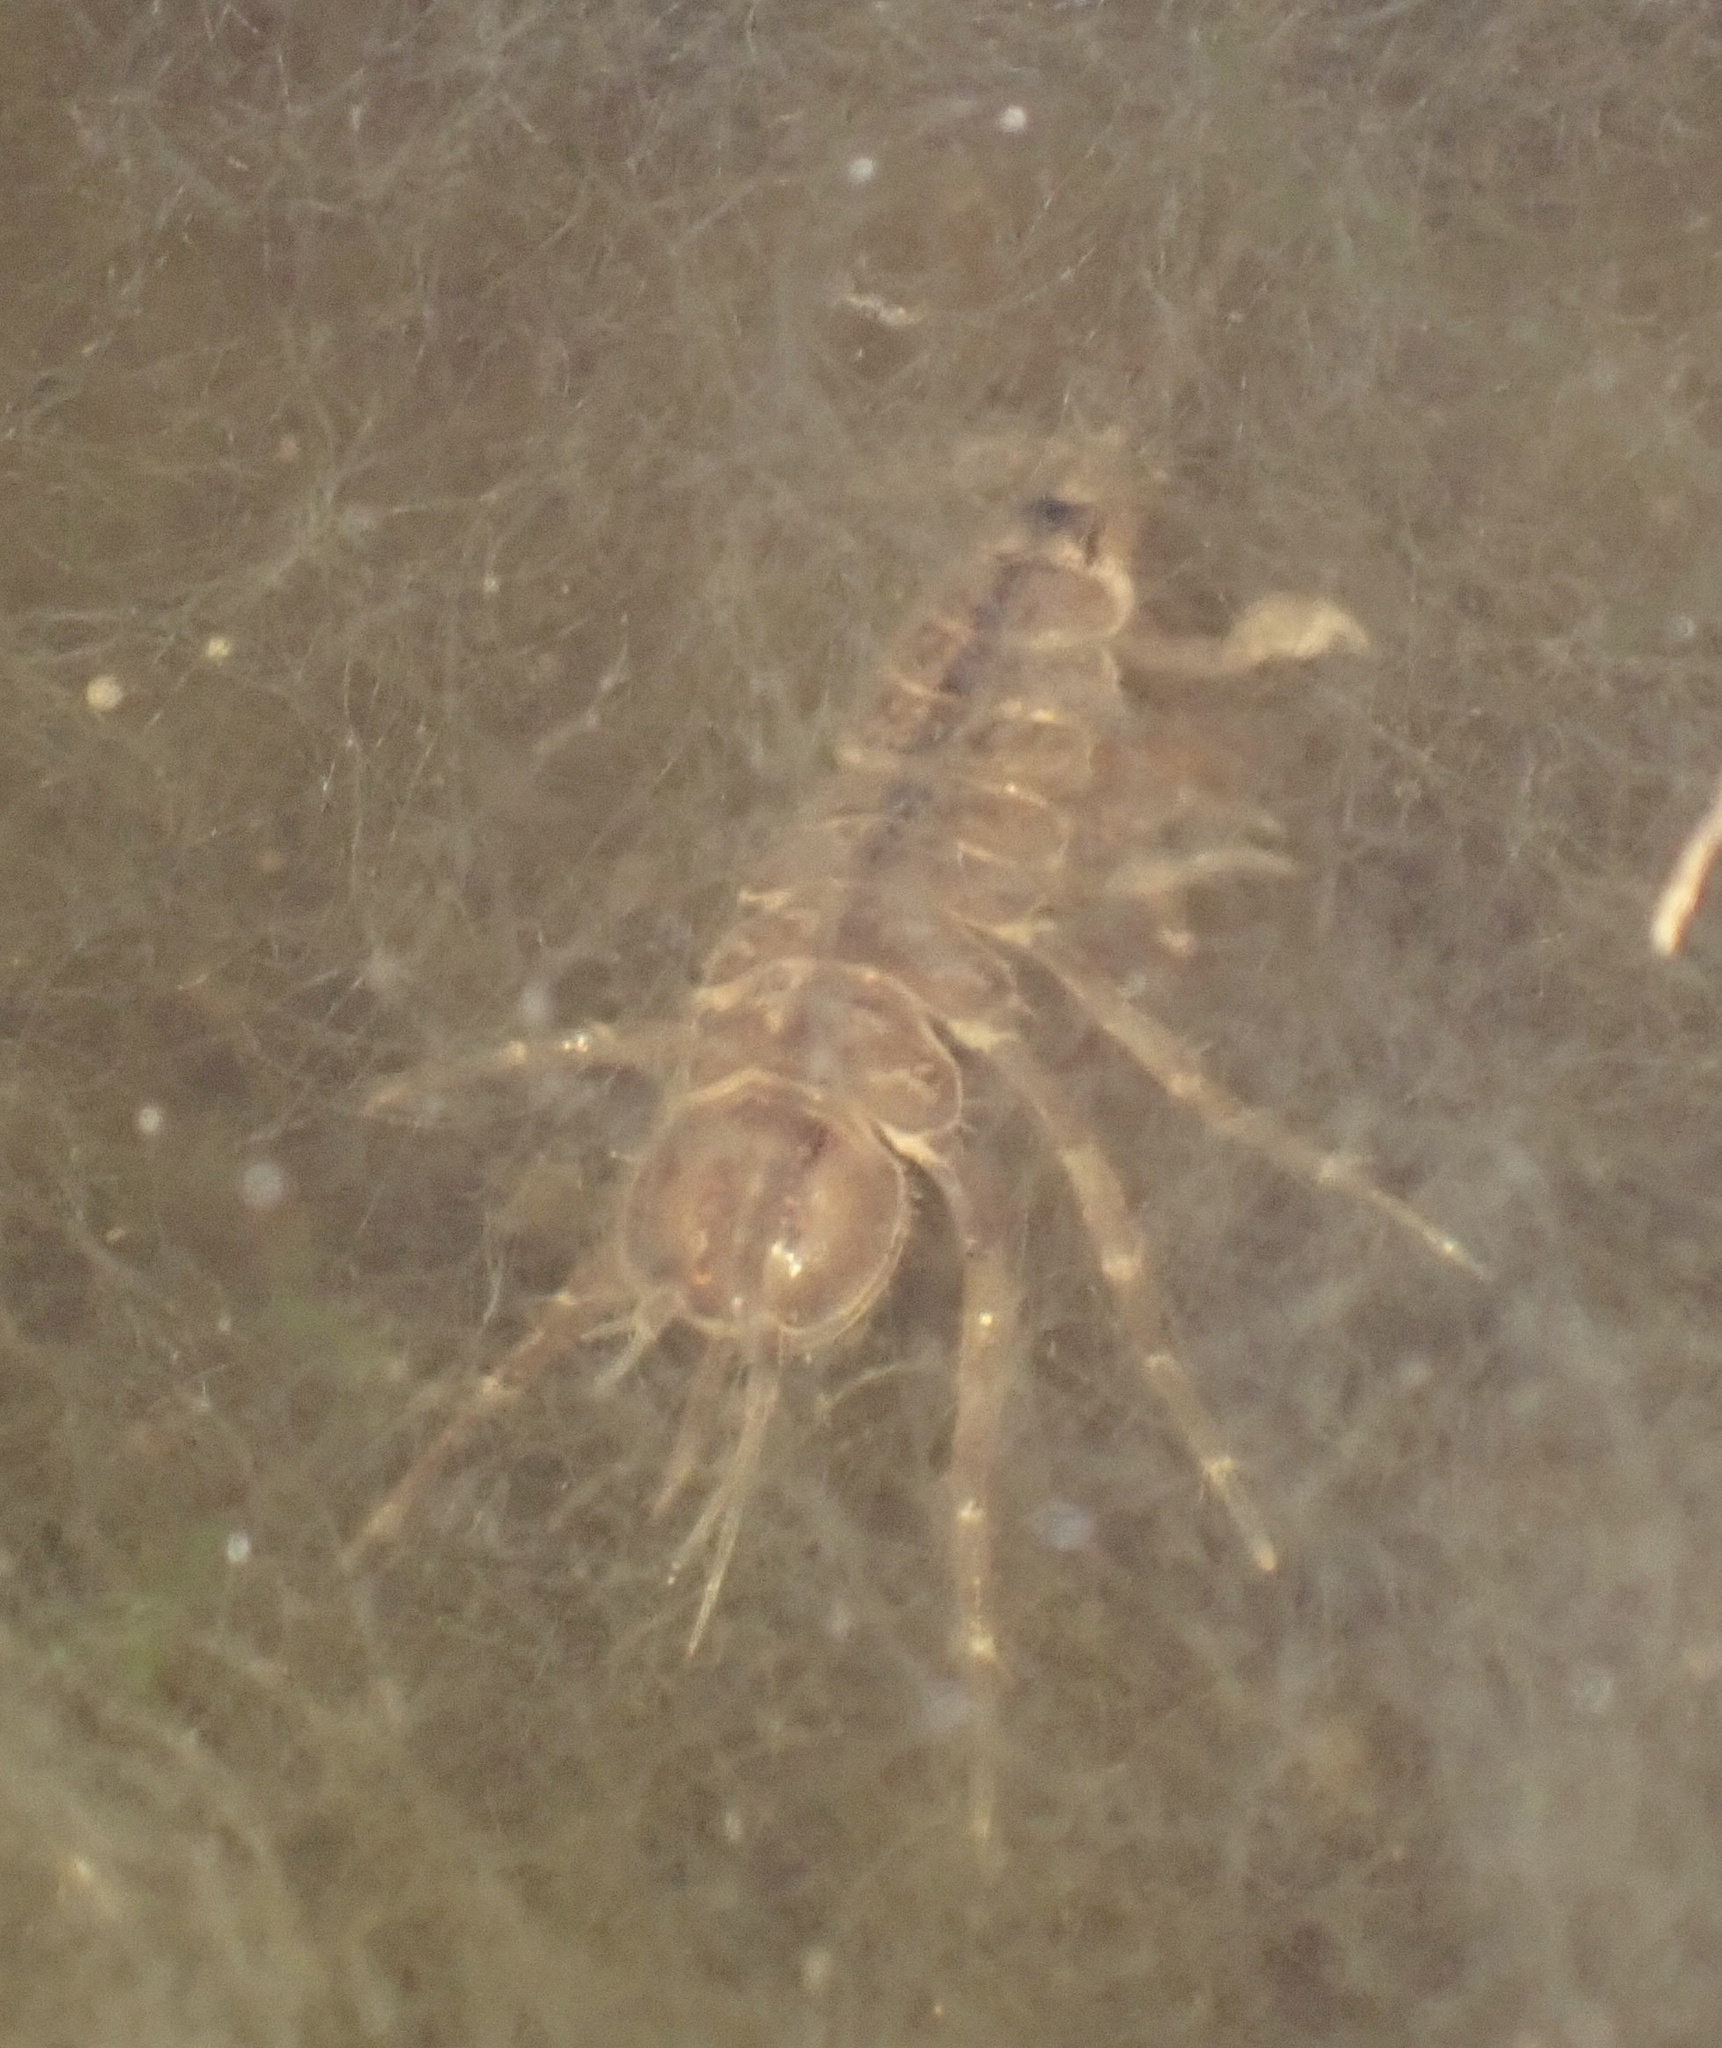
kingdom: Animalia
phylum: Arthropoda
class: Malacostraca
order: Isopoda
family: Asellidae
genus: Asellus
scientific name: Asellus aquaticus
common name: Water hog lice/slaters
